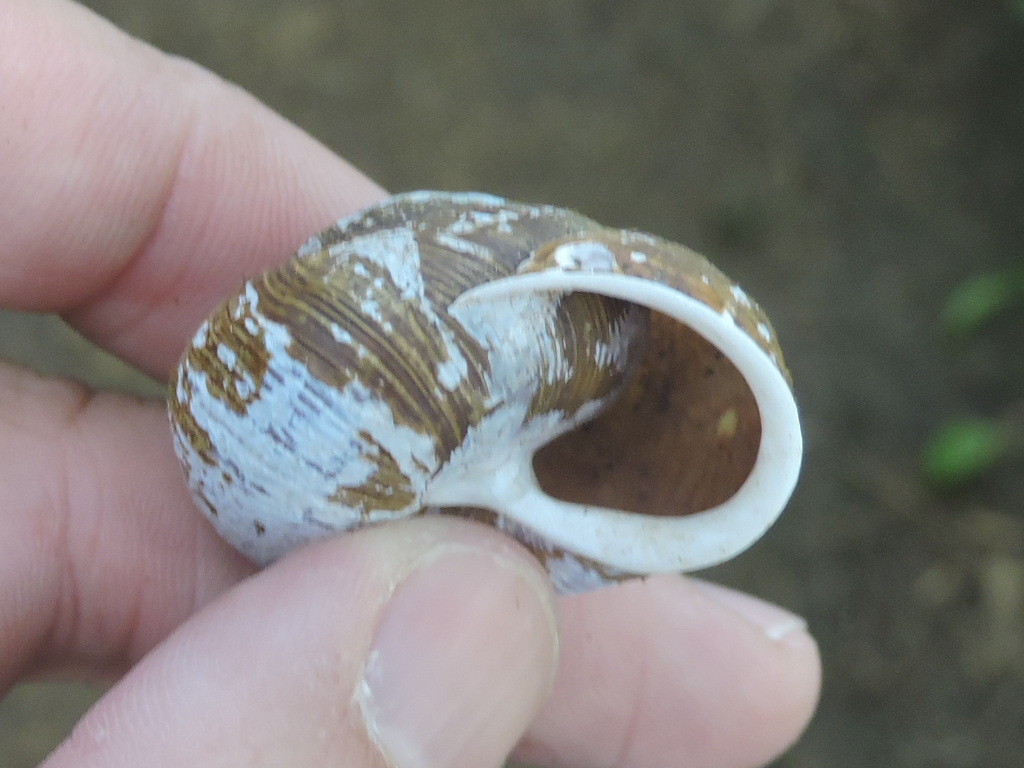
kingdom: Animalia
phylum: Mollusca
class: Gastropoda
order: Stylommatophora
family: Polygyridae
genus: Allogona
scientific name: Allogona townsendiana
